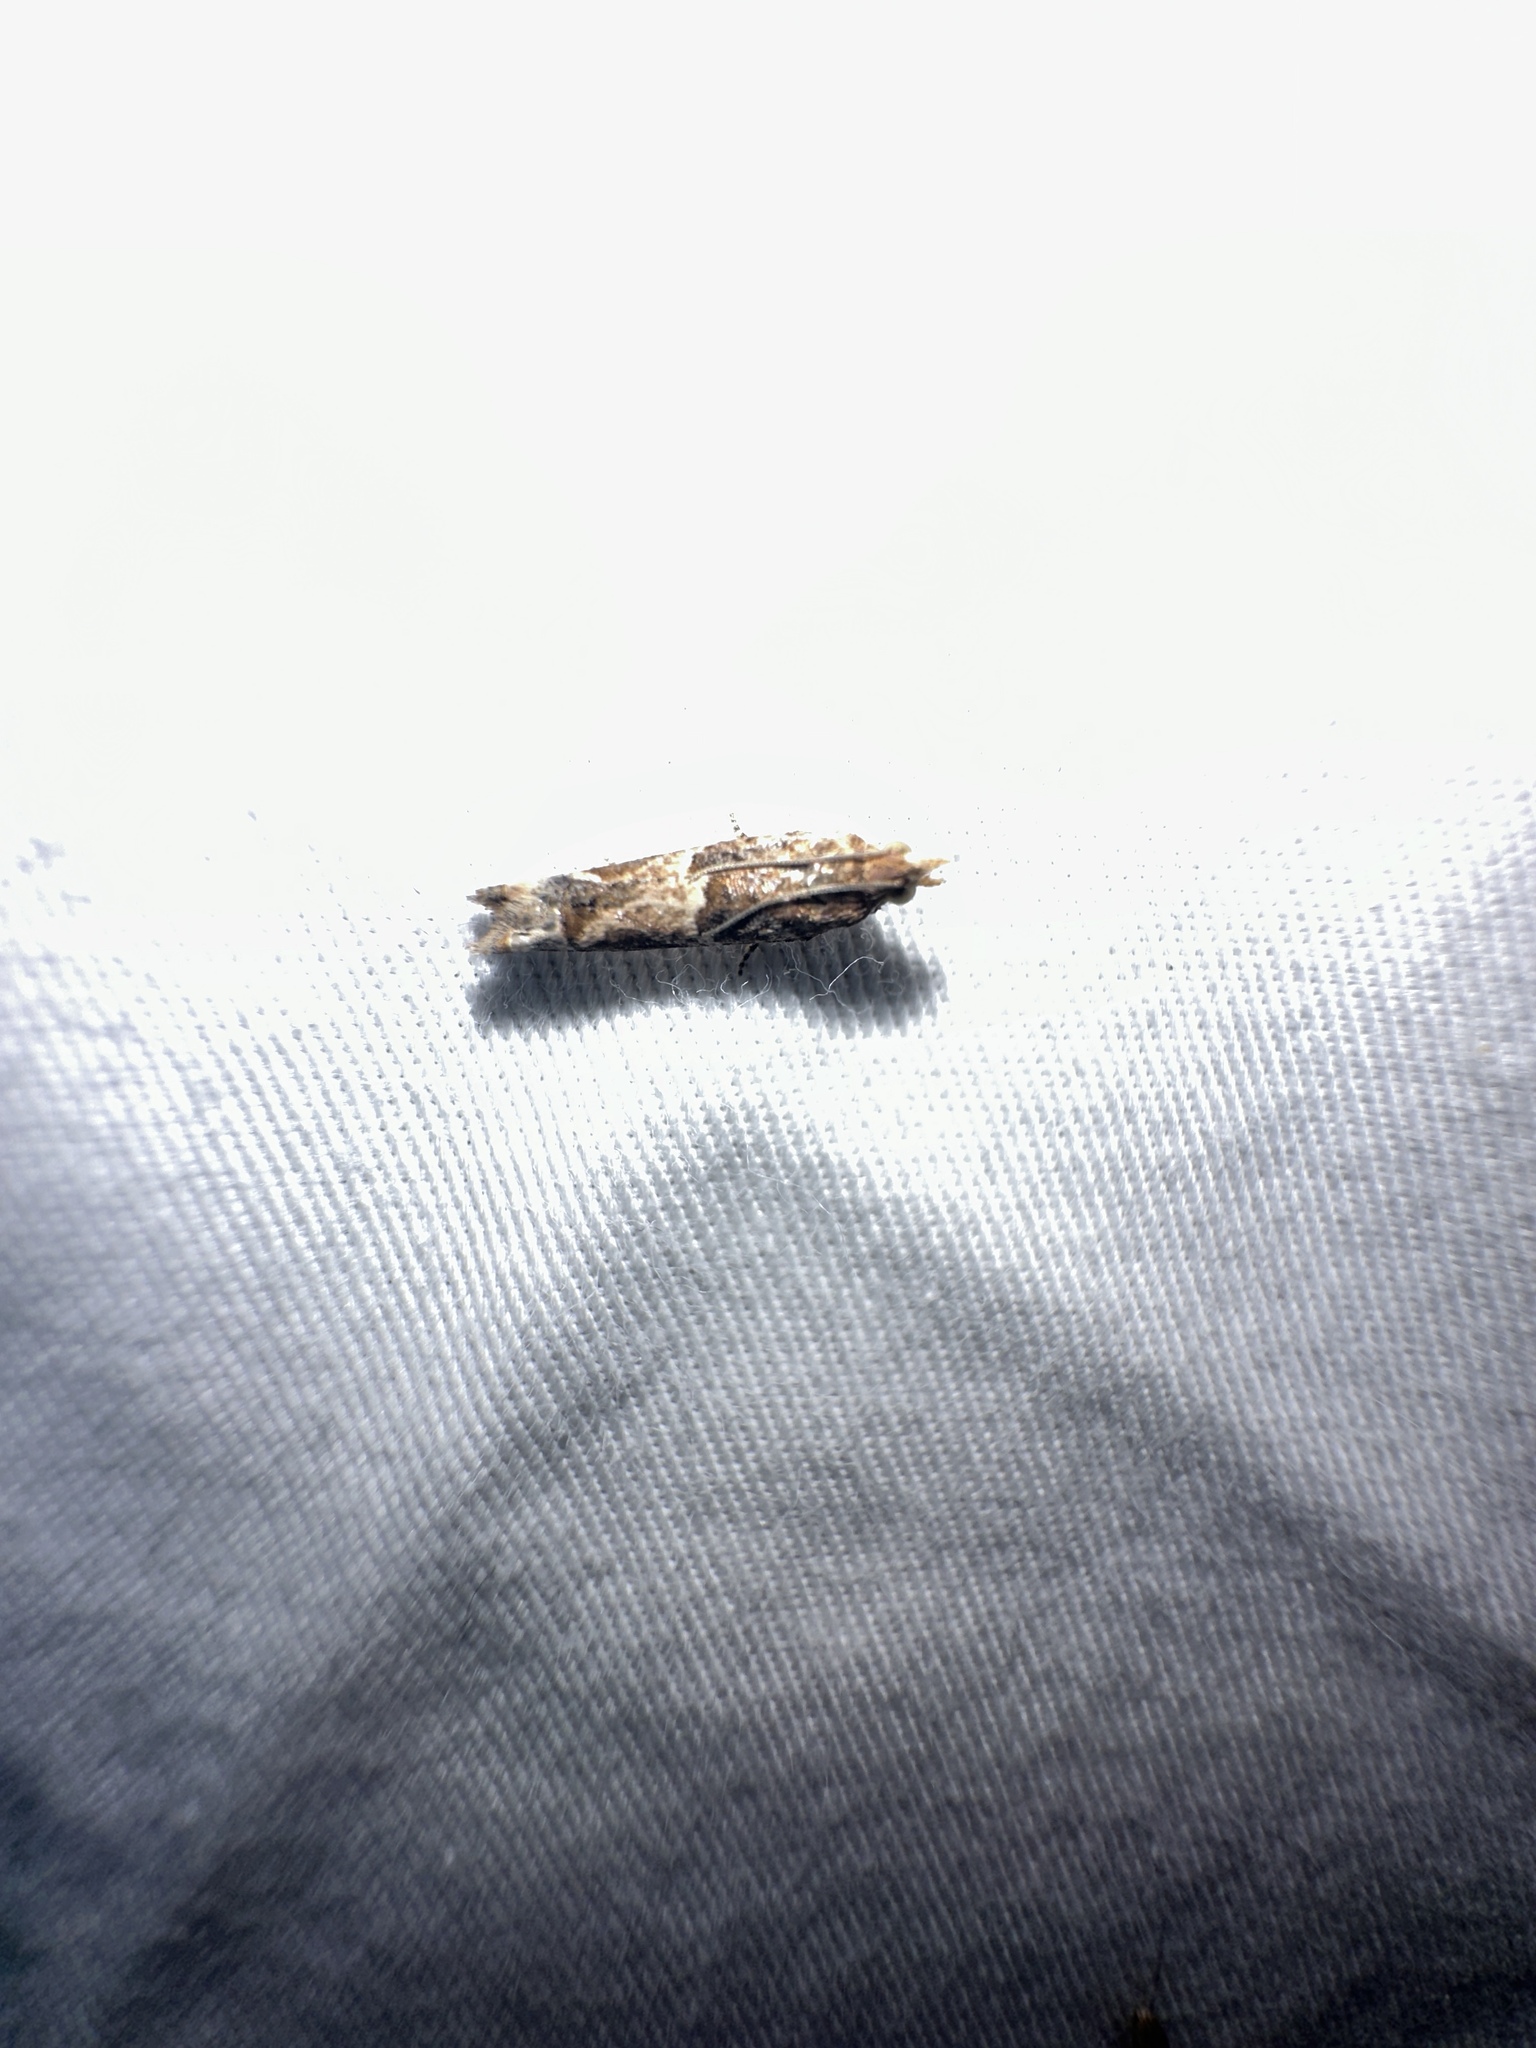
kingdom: Animalia
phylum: Arthropoda
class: Insecta
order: Lepidoptera
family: Tortricidae
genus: Crocidosema
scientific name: Crocidosema plebejana
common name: Southern bell
